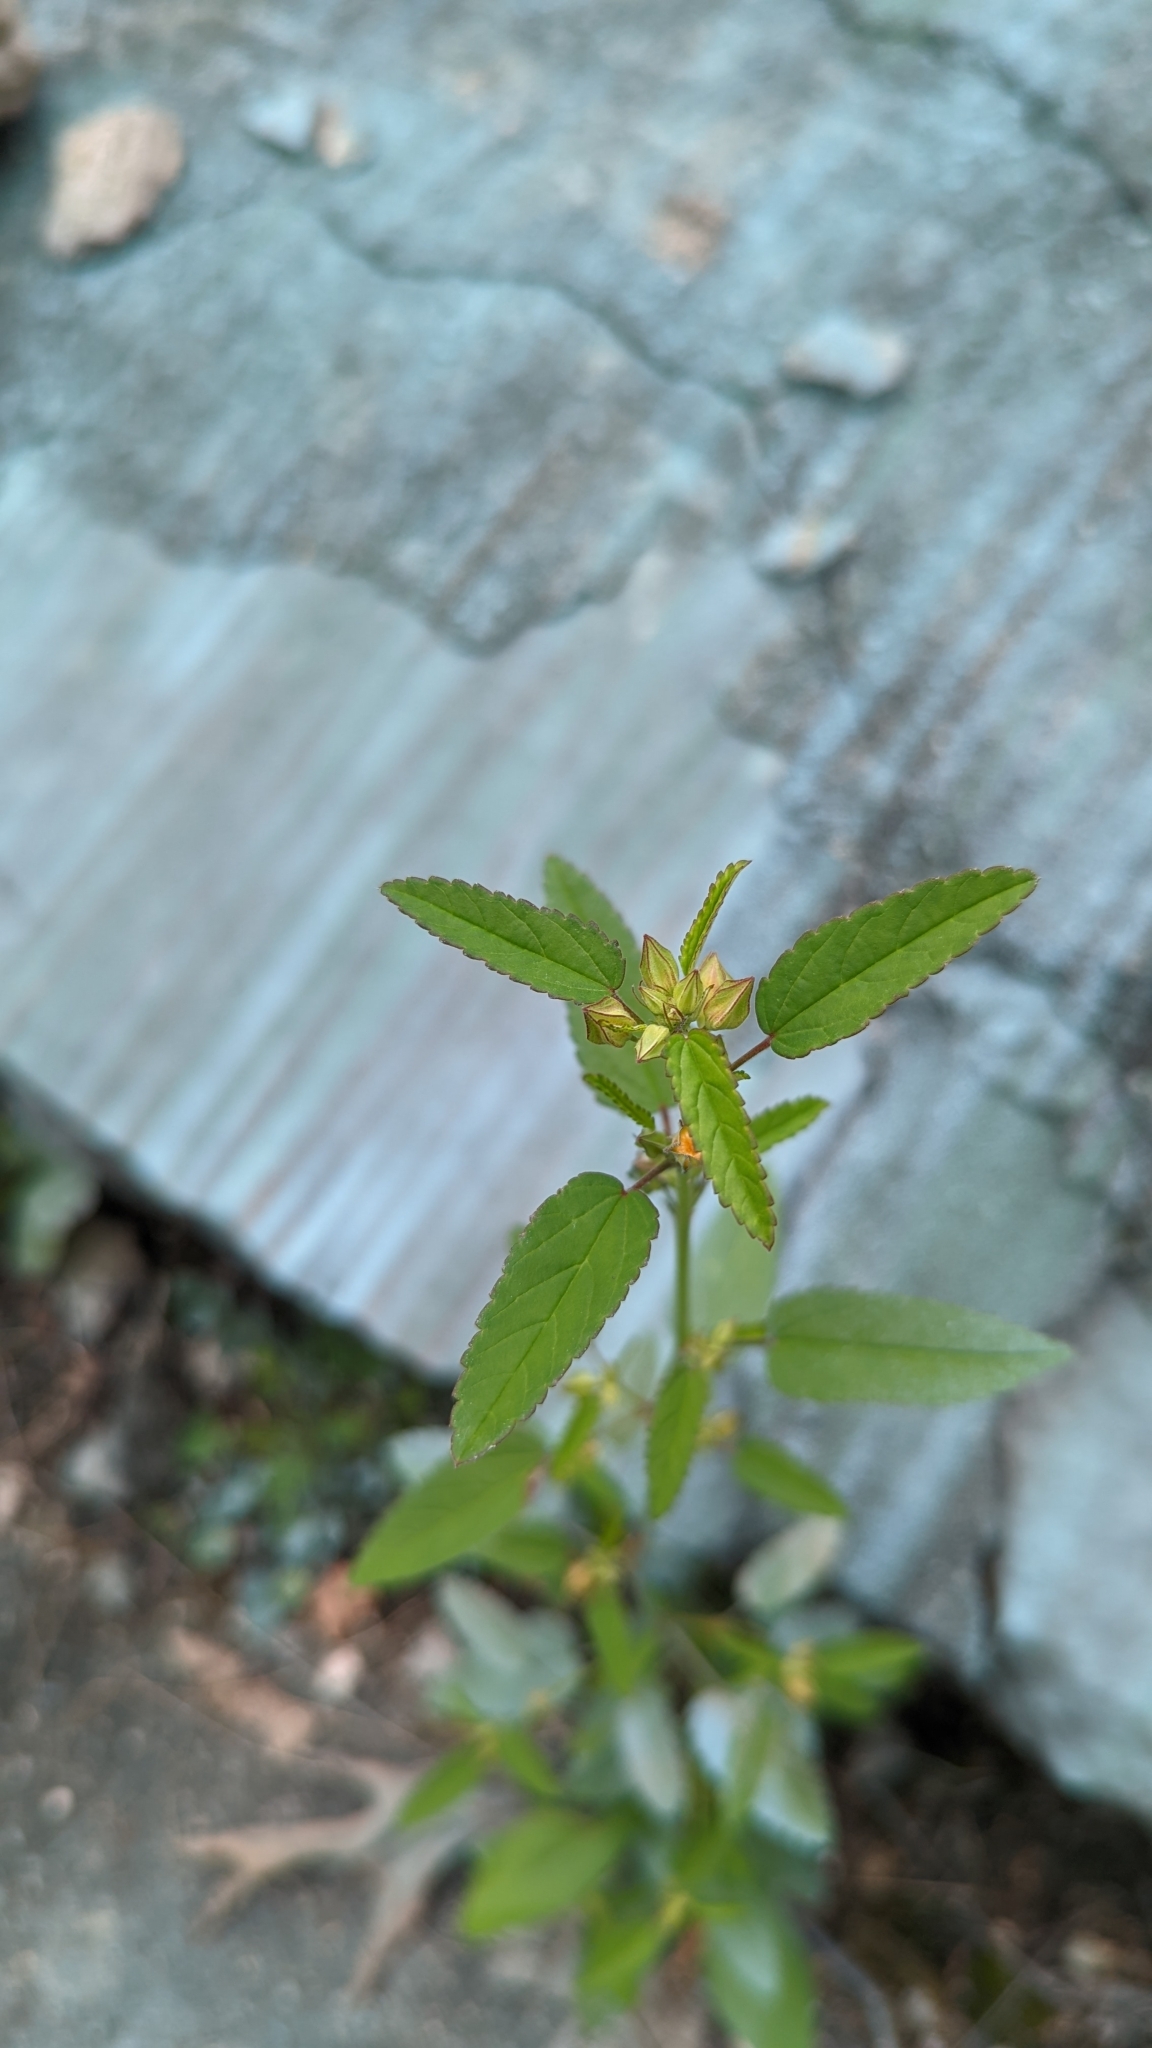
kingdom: Plantae
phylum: Tracheophyta
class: Magnoliopsida
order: Malvales
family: Malvaceae
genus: Sida
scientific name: Sida spinosa
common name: Prickly fanpetals
